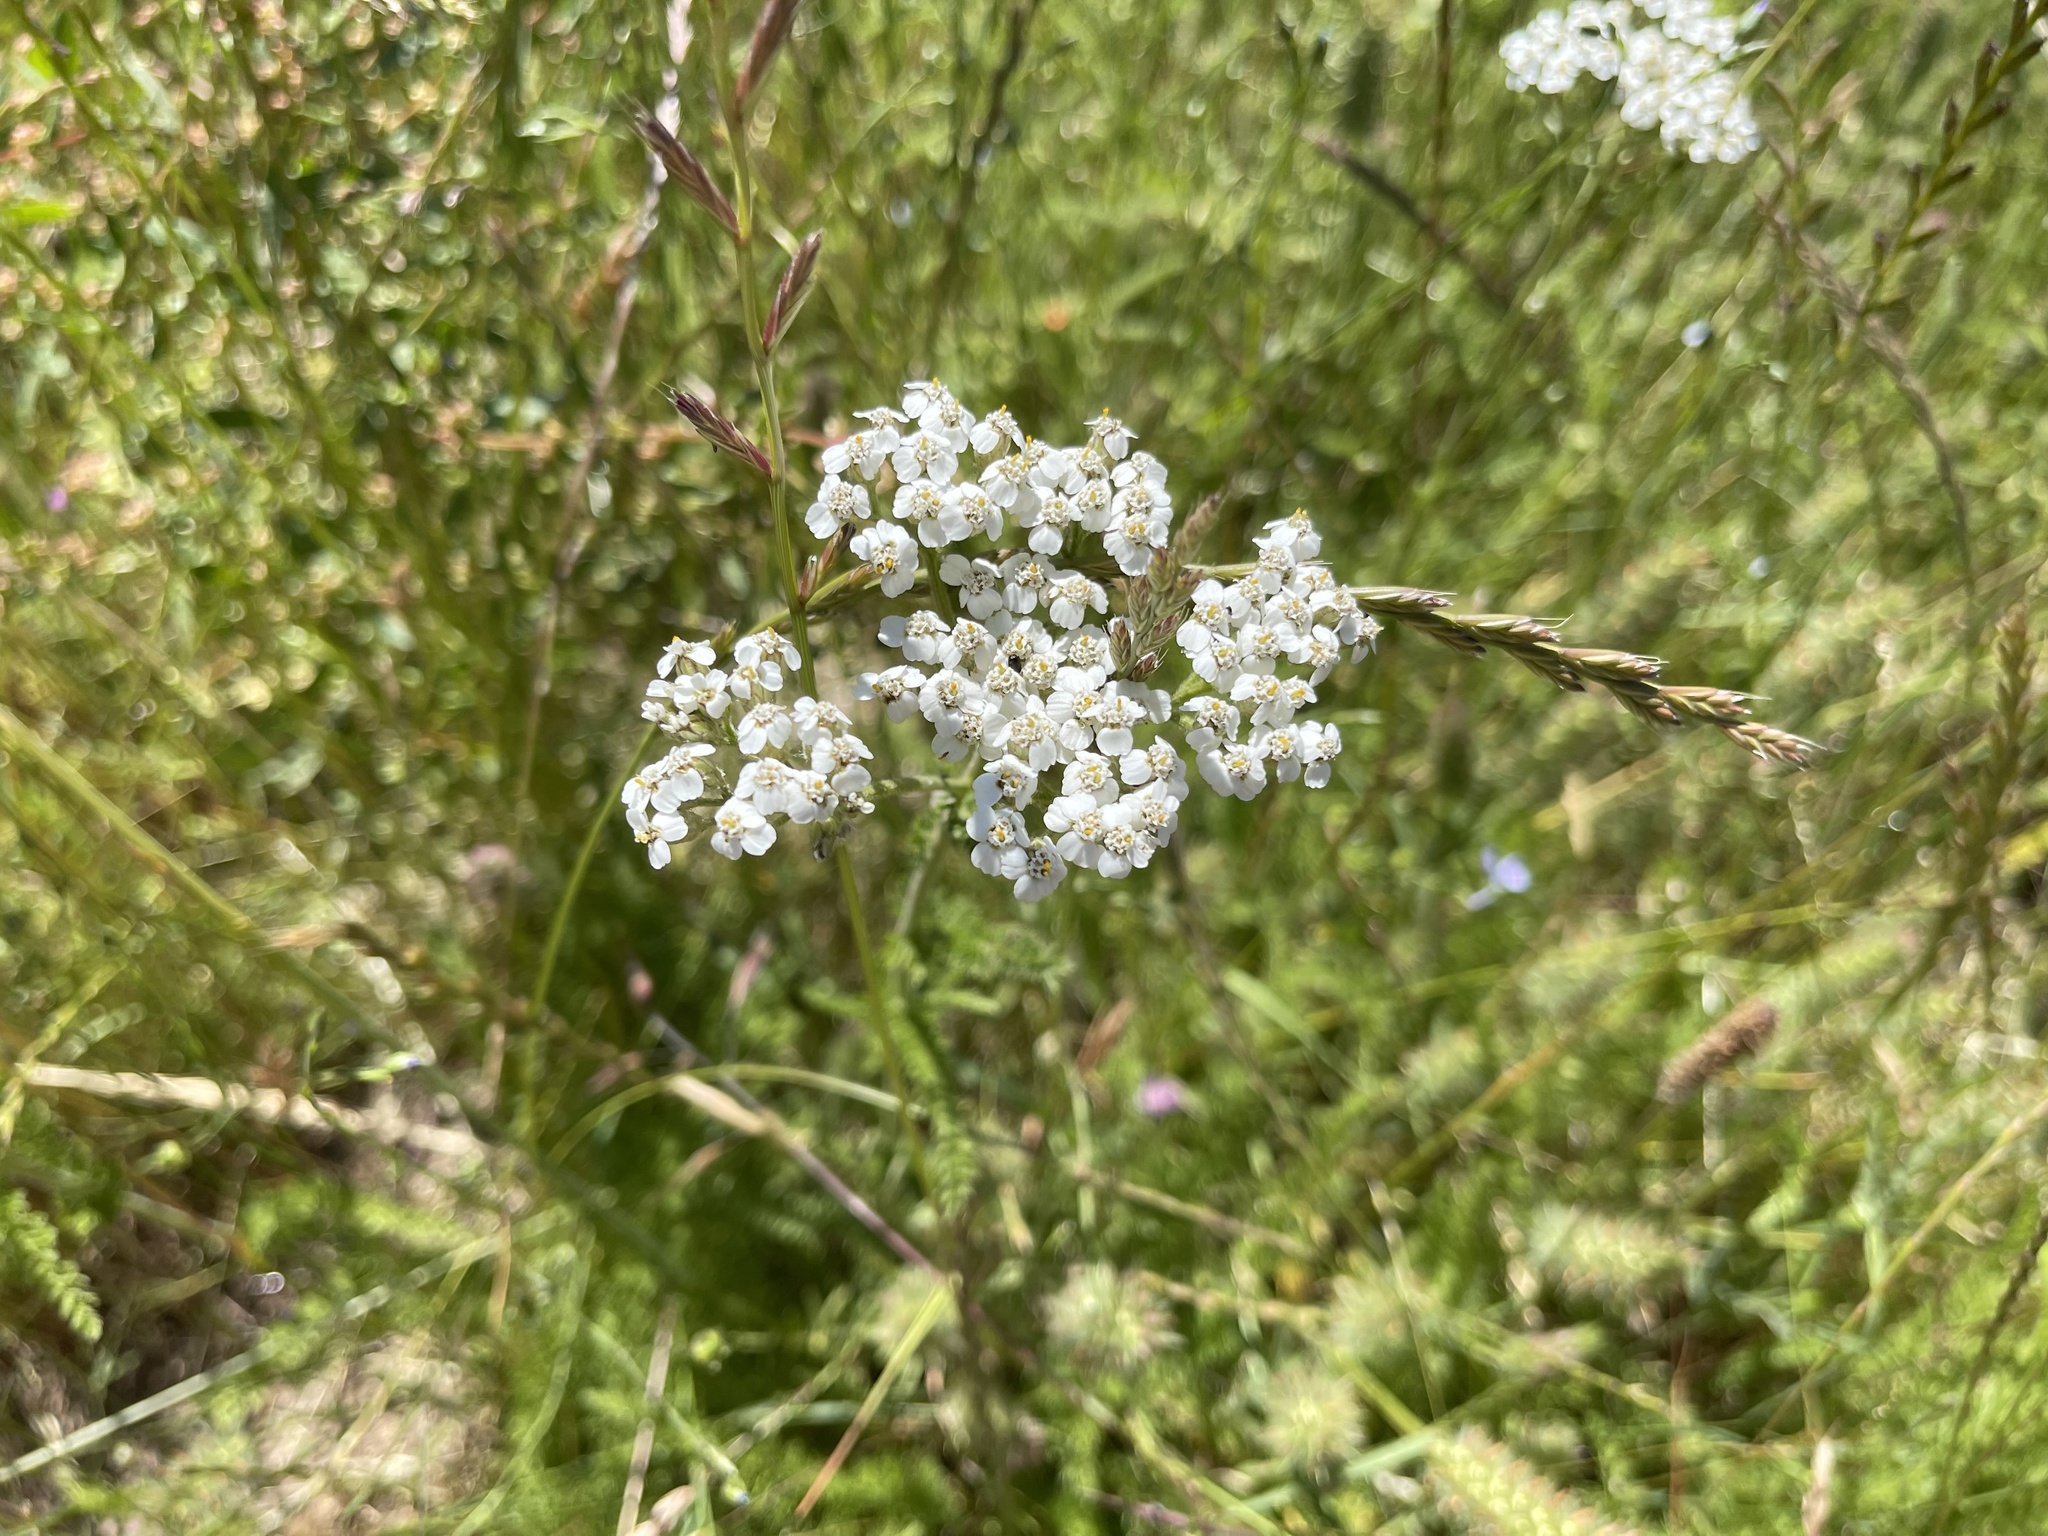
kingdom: Plantae
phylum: Tracheophyta
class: Magnoliopsida
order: Asterales
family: Asteraceae
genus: Achillea
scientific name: Achillea millefolium
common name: Yarrow
